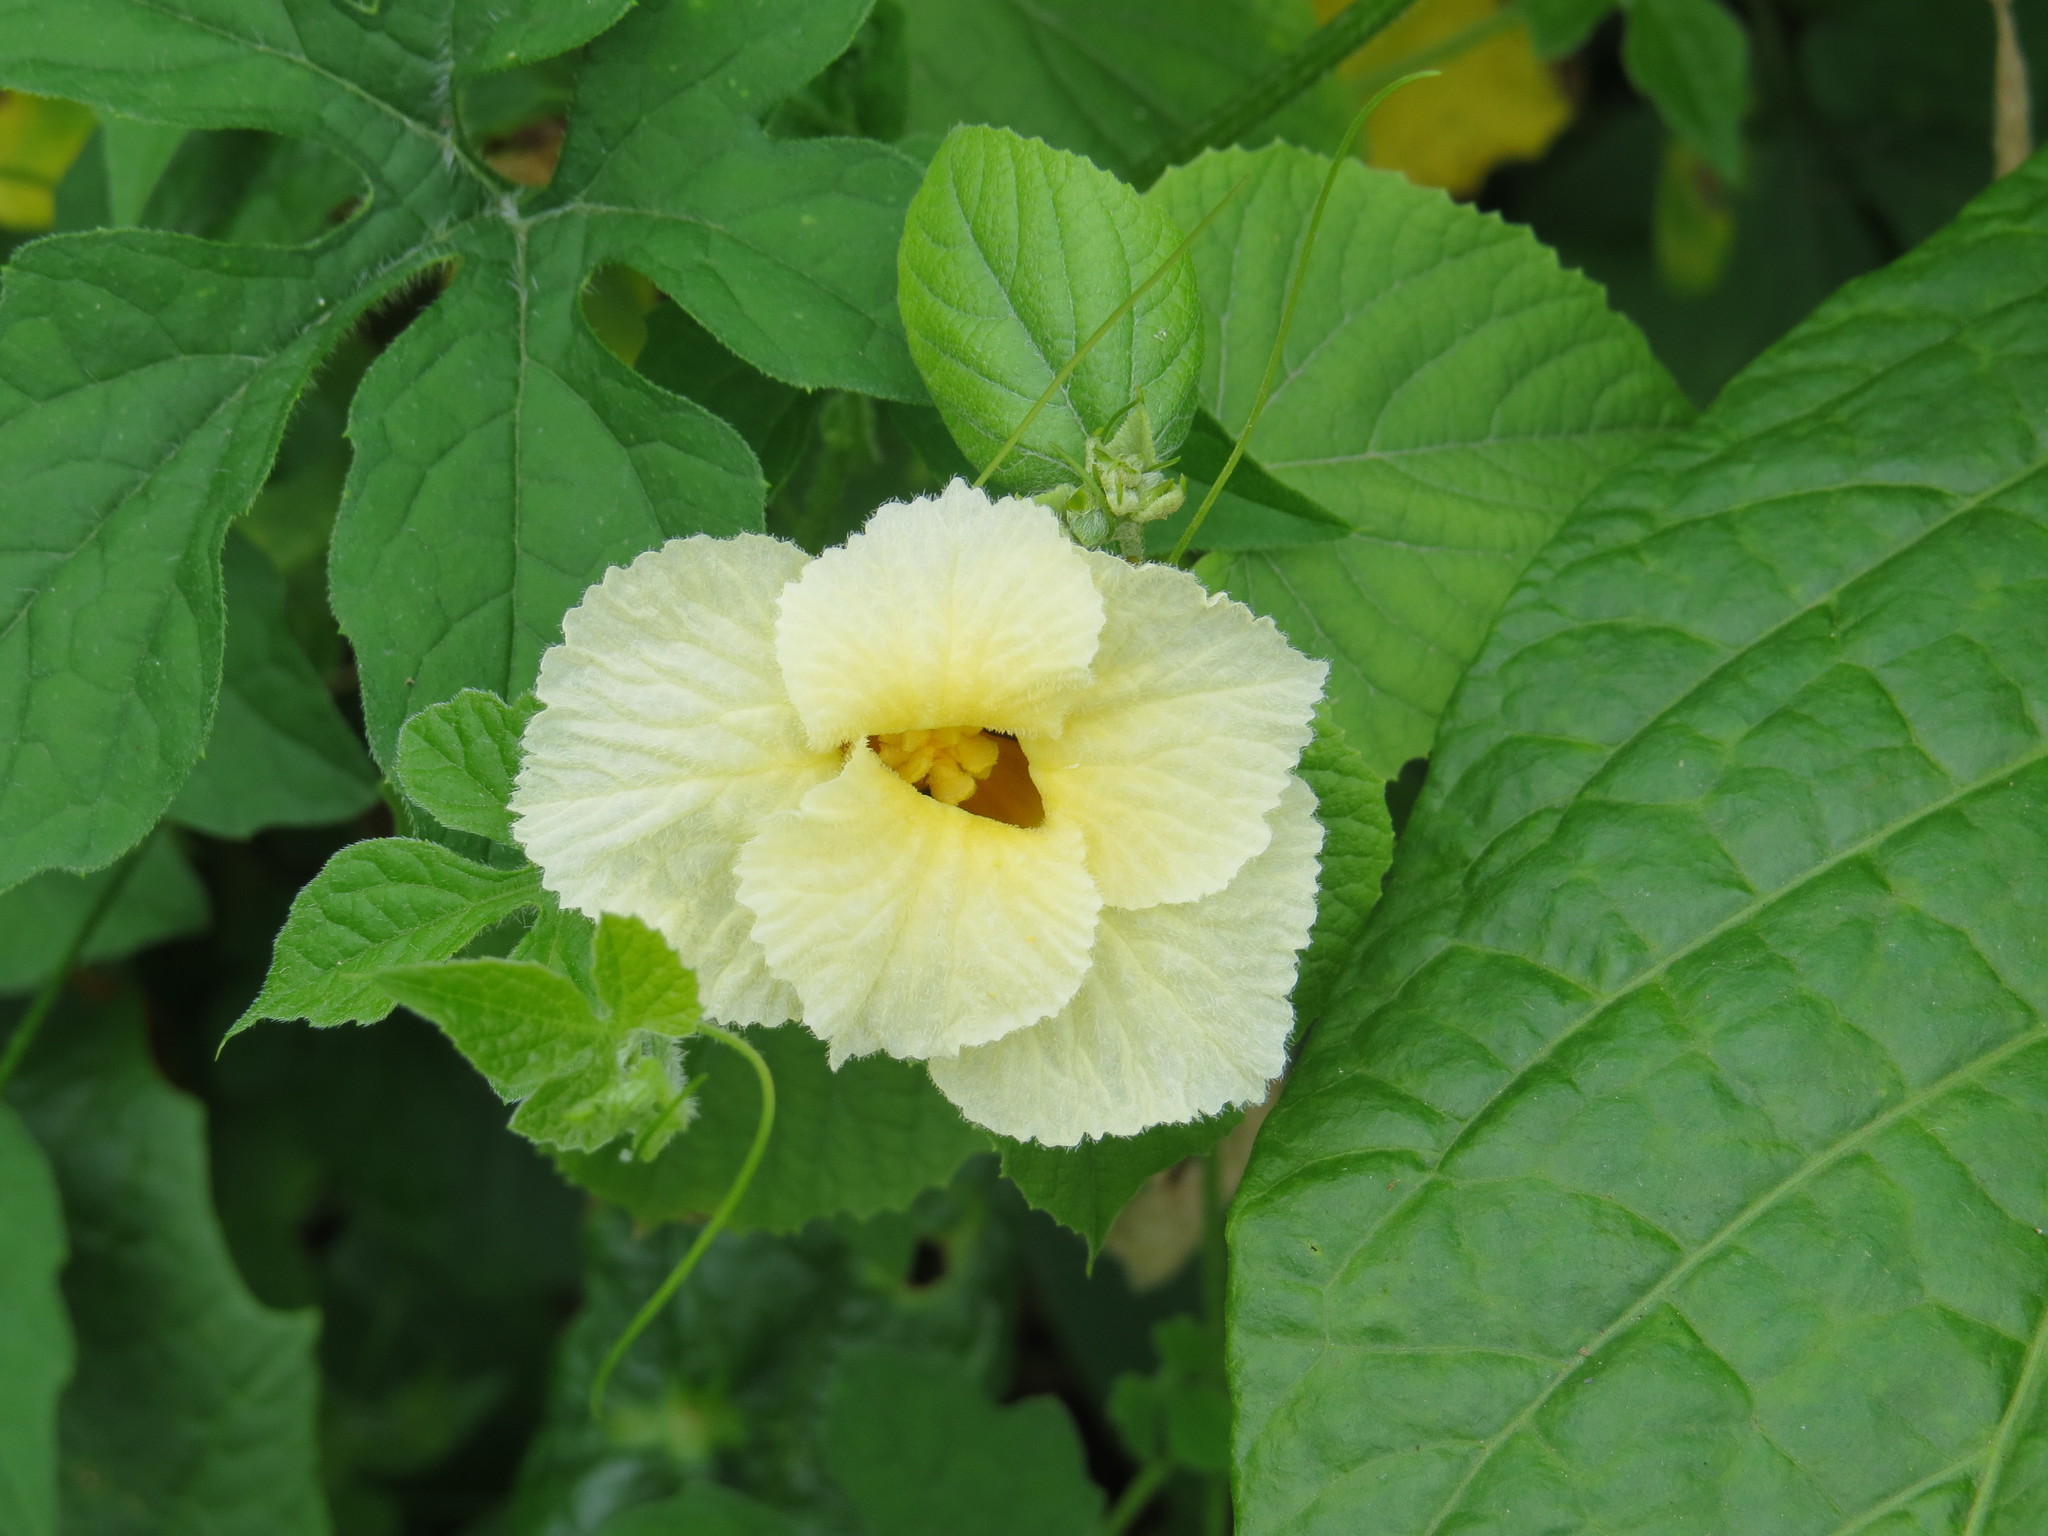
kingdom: Plantae
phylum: Tracheophyta
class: Magnoliopsida
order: Cucurbitales
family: Cucurbitaceae
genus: Momordica
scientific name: Momordica foetida
